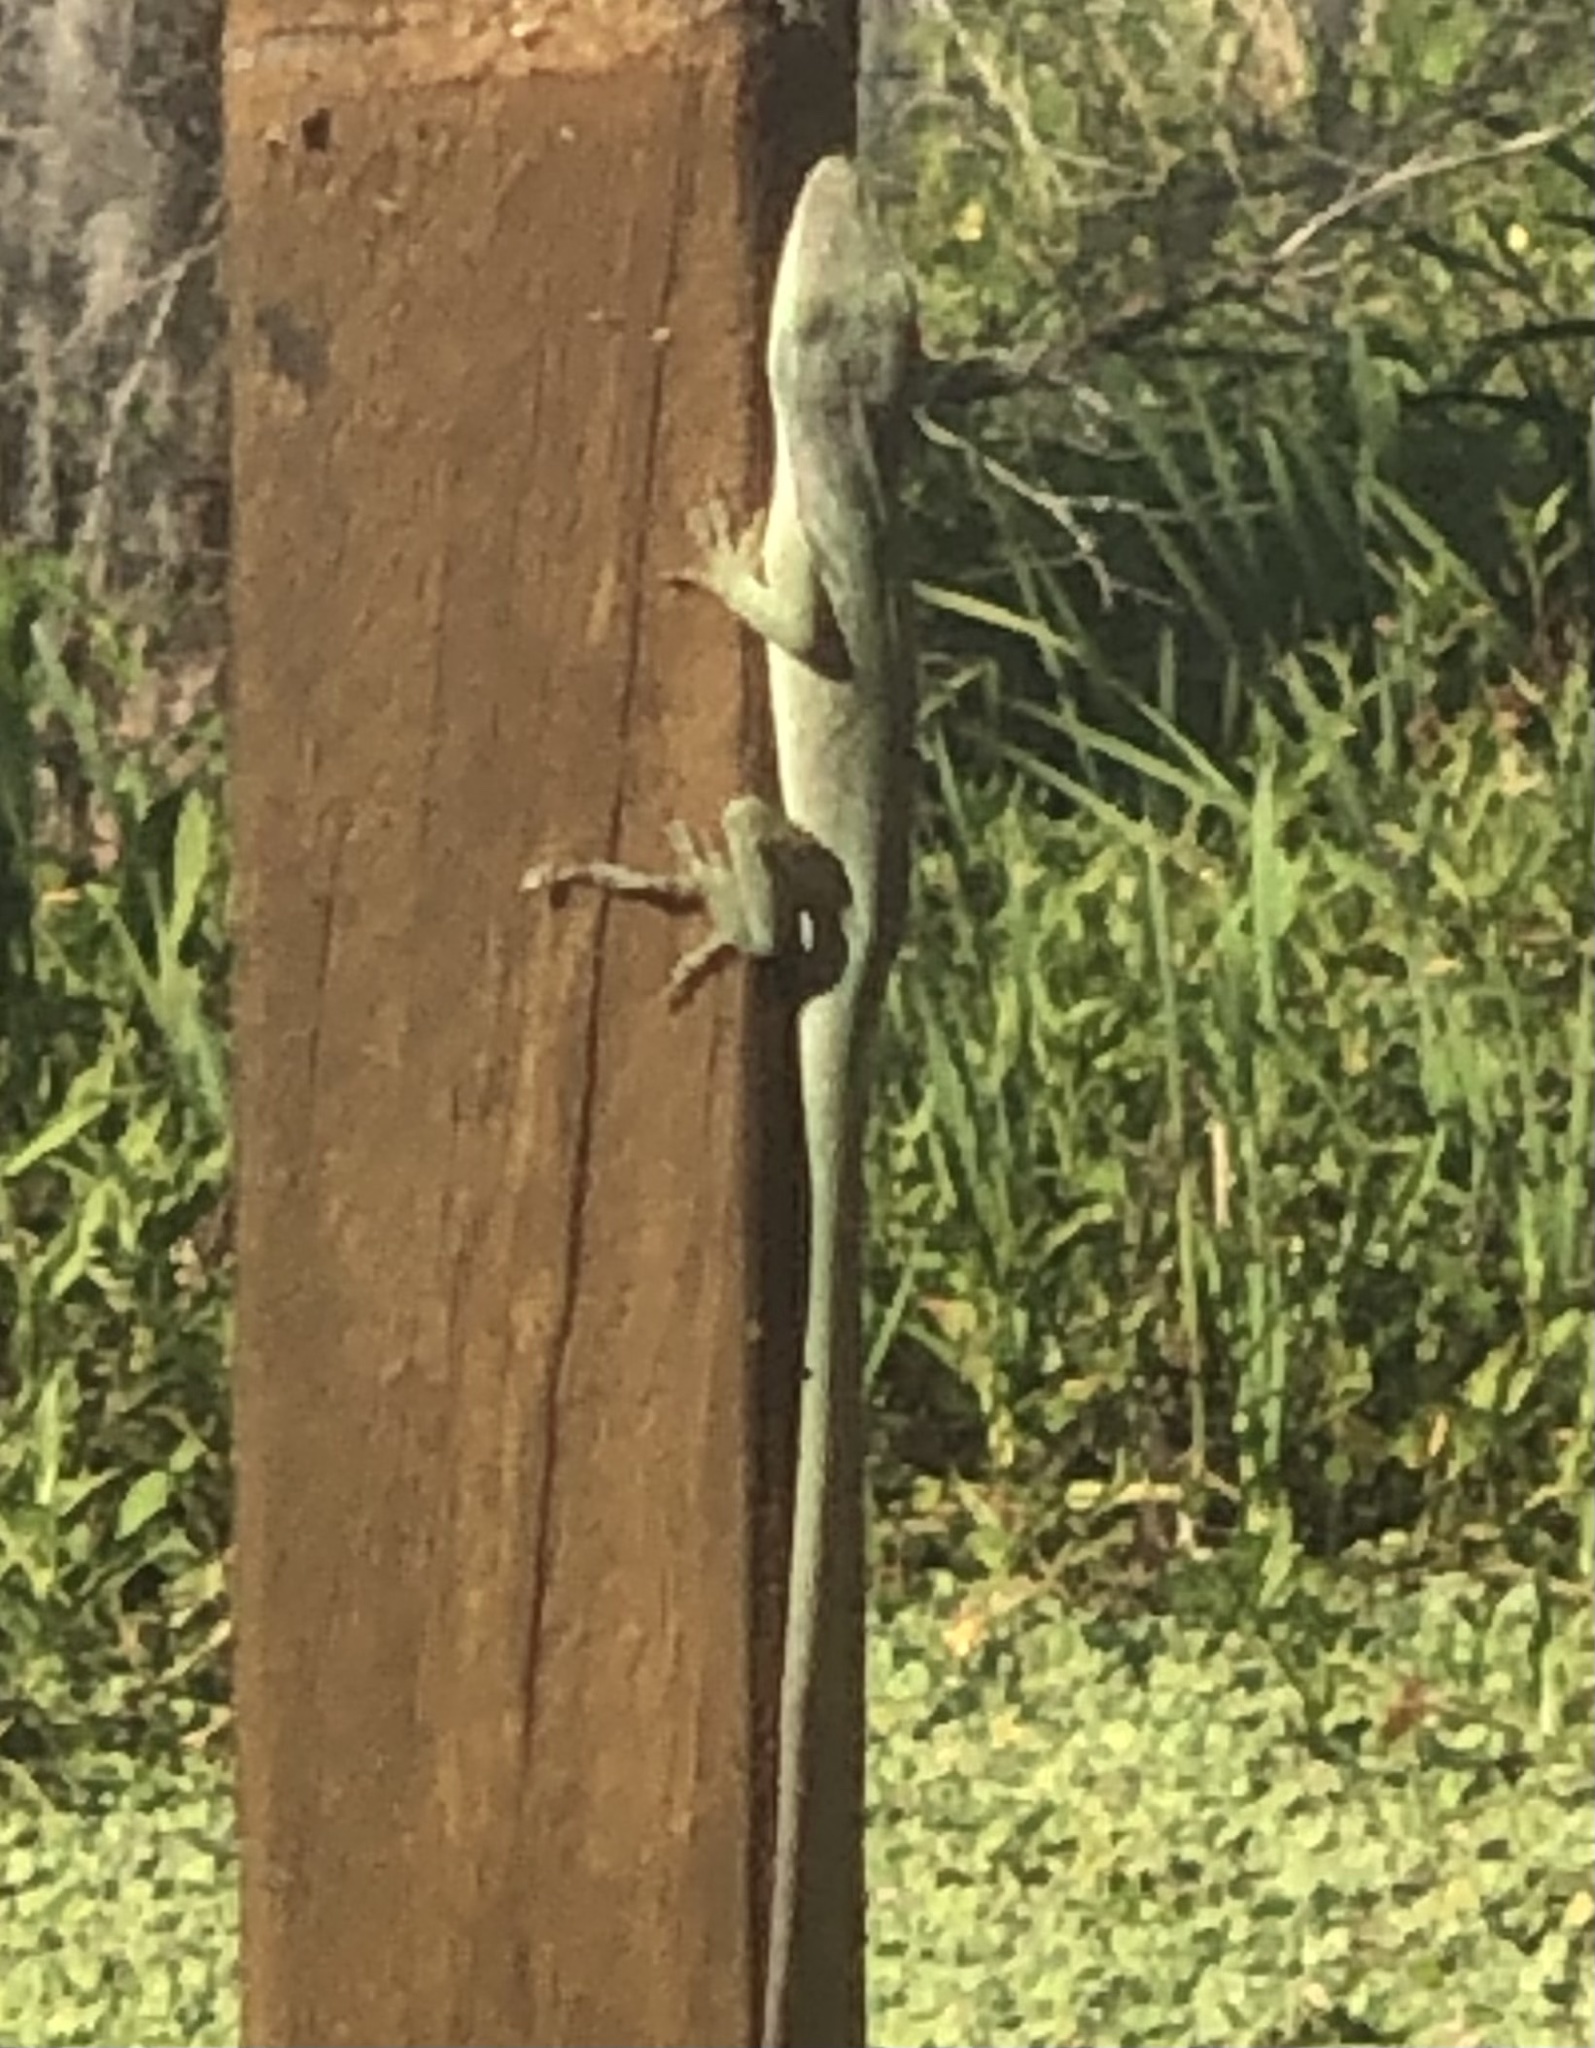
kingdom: Animalia
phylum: Chordata
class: Squamata
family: Dactyloidae
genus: Anolis
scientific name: Anolis carolinensis
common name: Green anole
